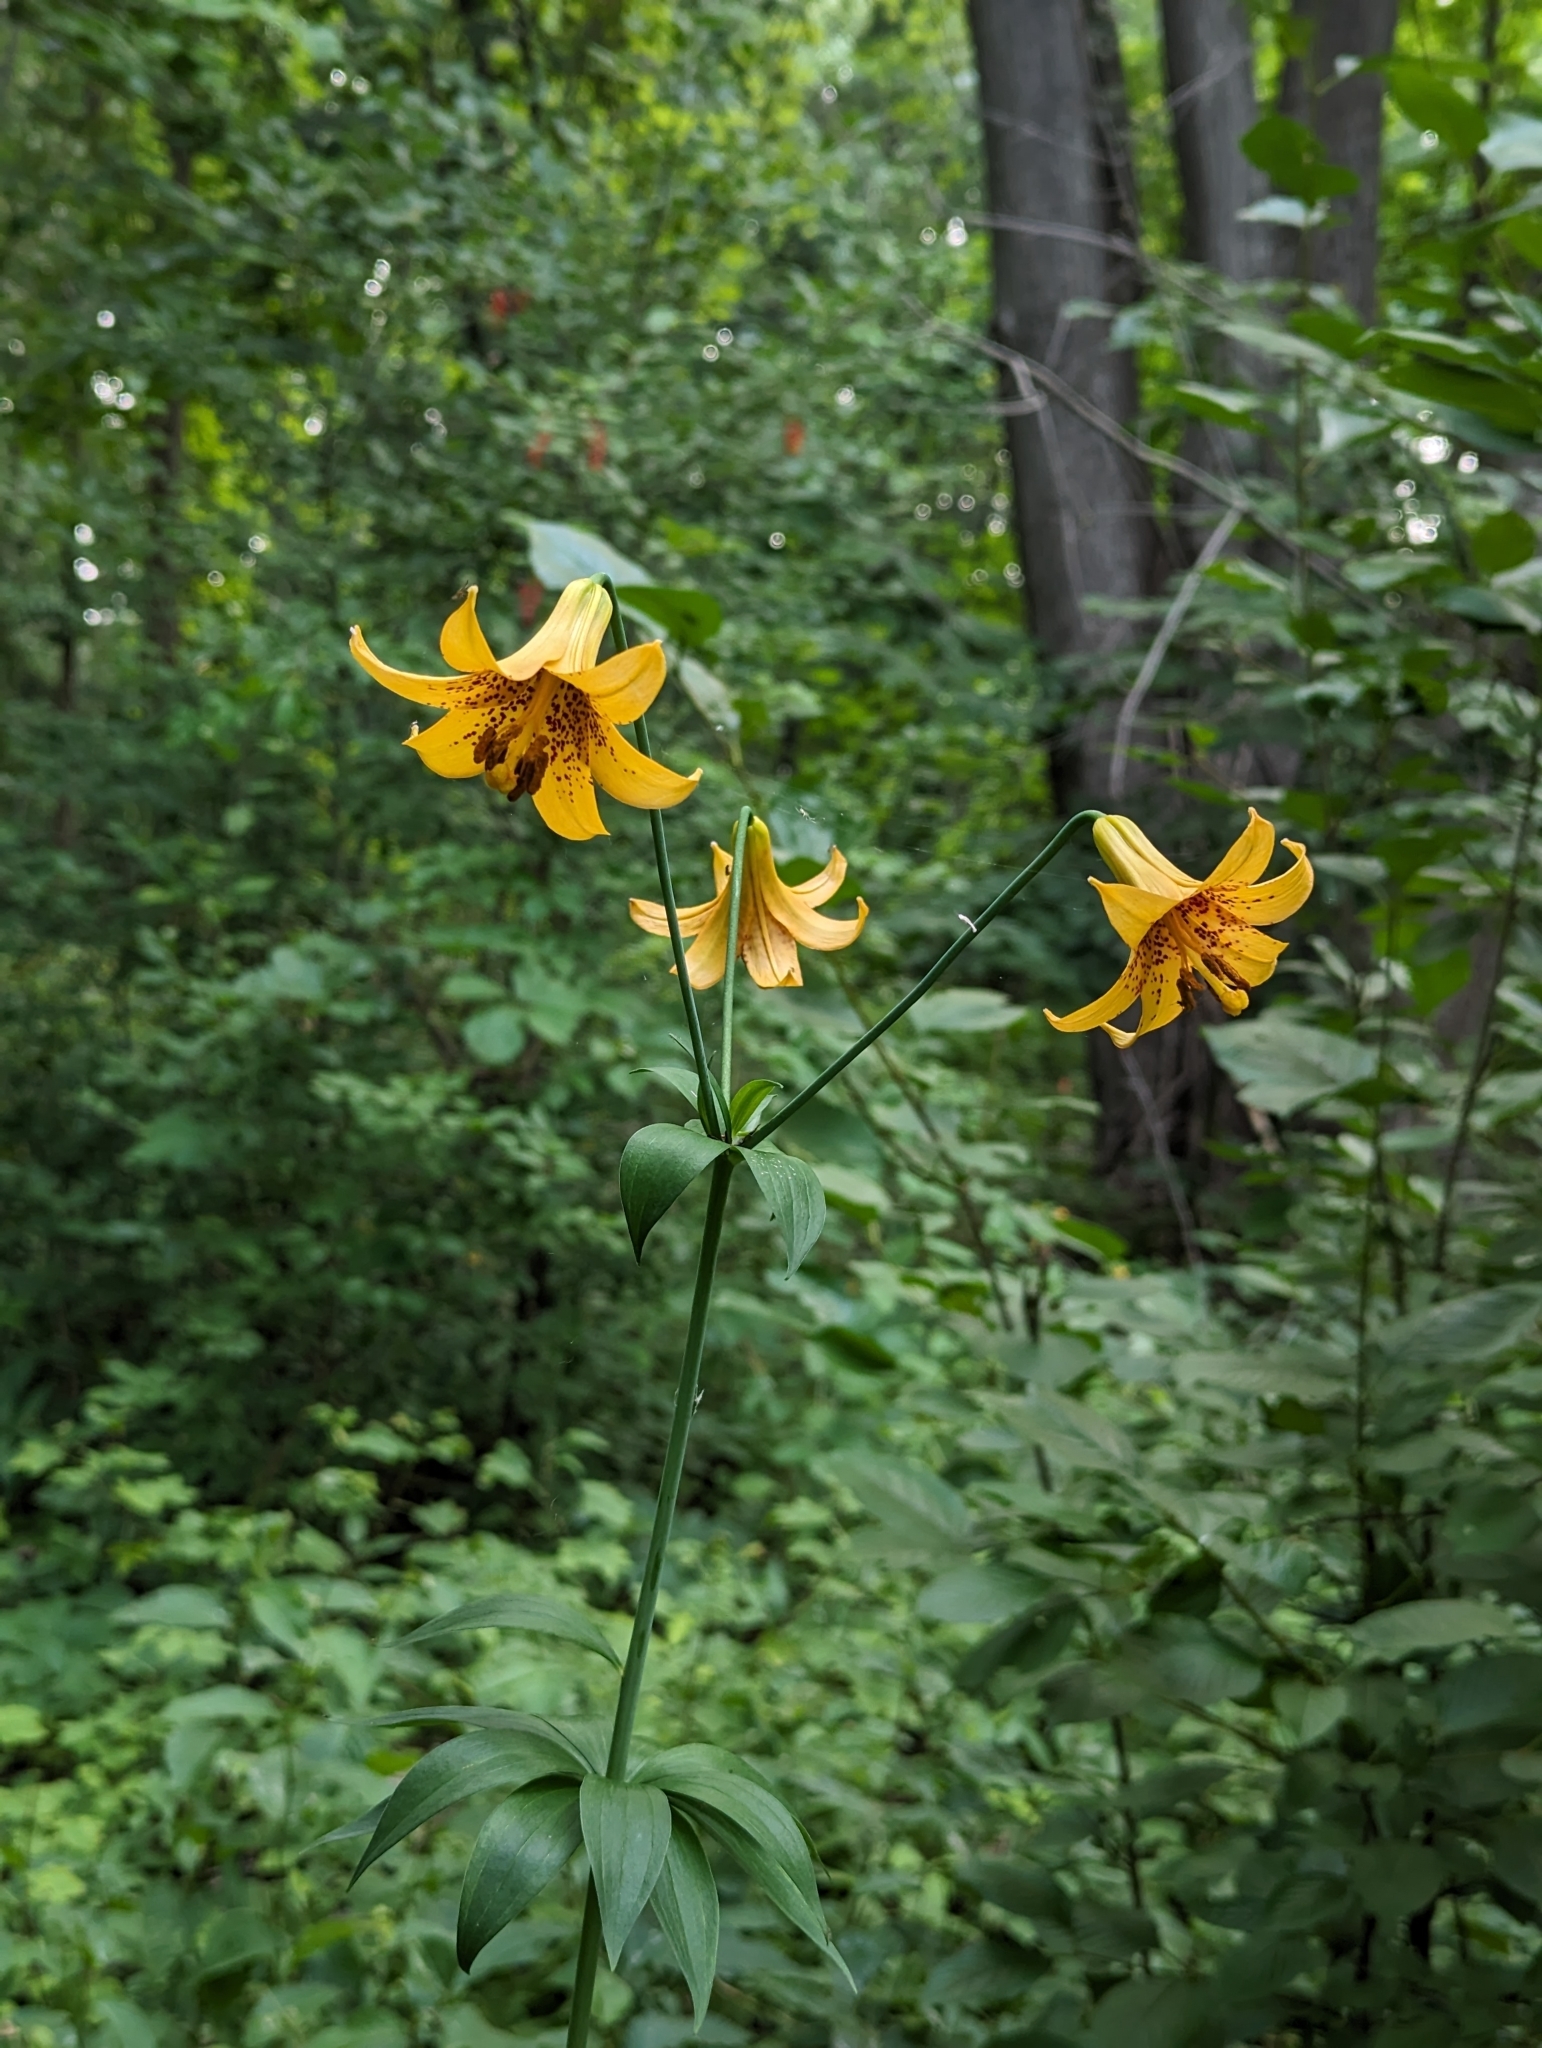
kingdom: Plantae
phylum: Tracheophyta
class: Liliopsida
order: Liliales
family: Liliaceae
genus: Lilium
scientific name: Lilium canadense
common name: Canada lily
